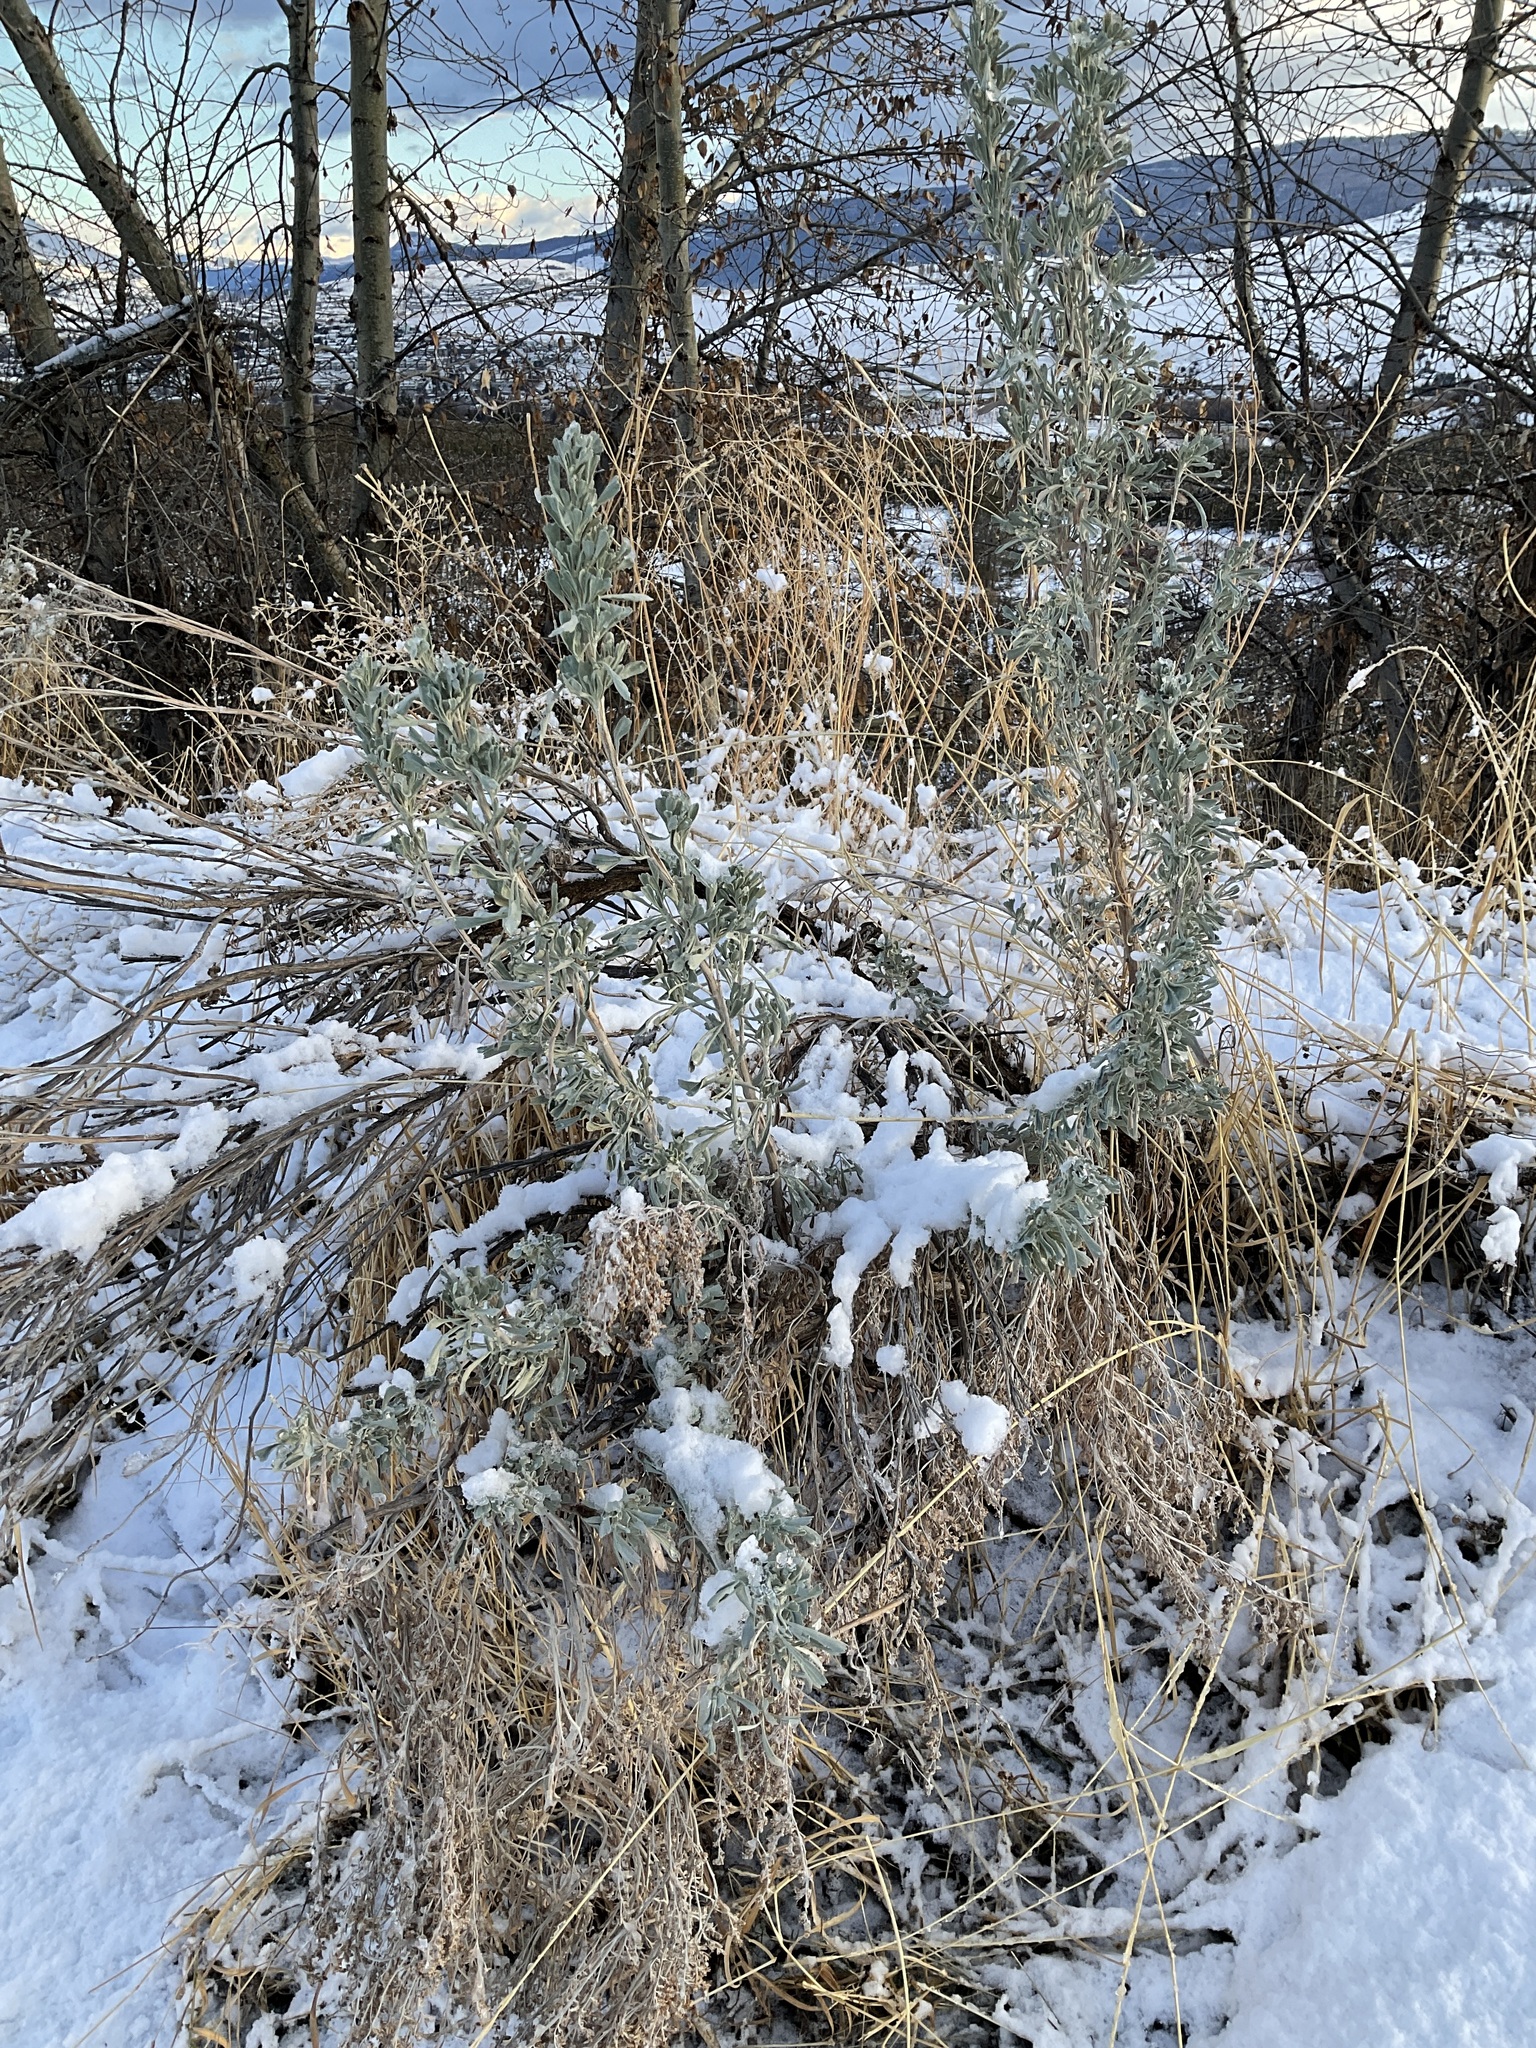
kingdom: Plantae
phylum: Tracheophyta
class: Magnoliopsida
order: Asterales
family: Asteraceae
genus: Artemisia
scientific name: Artemisia tridentata
